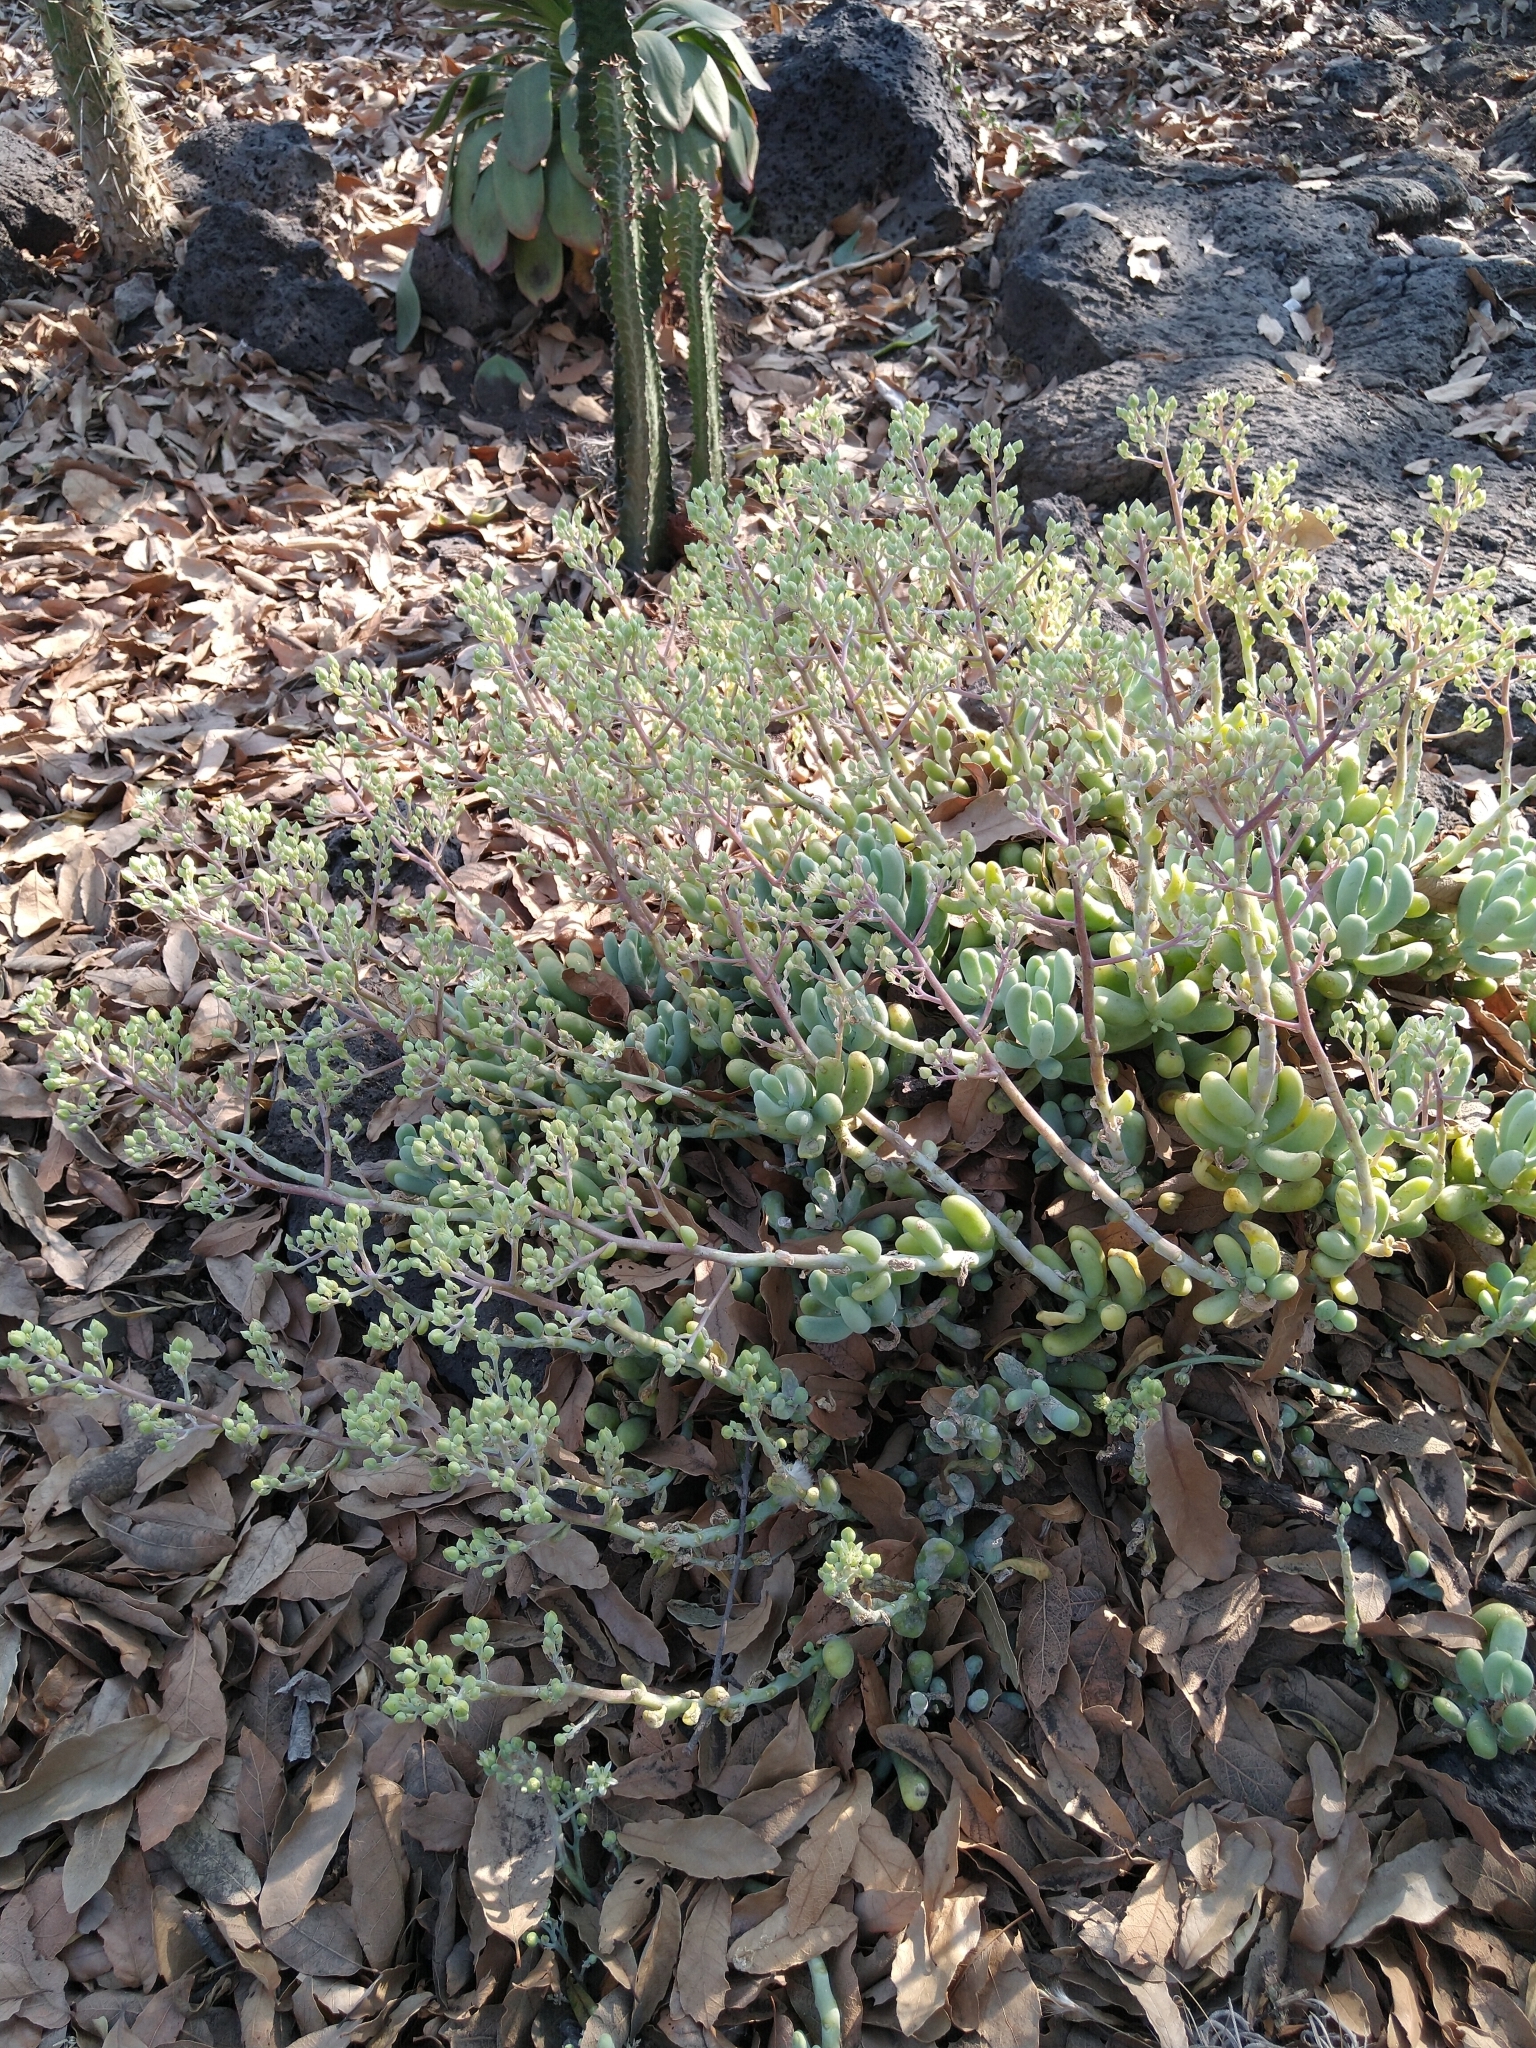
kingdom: Plantae
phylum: Tracheophyta
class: Magnoliopsida
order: Saxifragales
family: Crassulaceae
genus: Sedum
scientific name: Sedum allantoides
